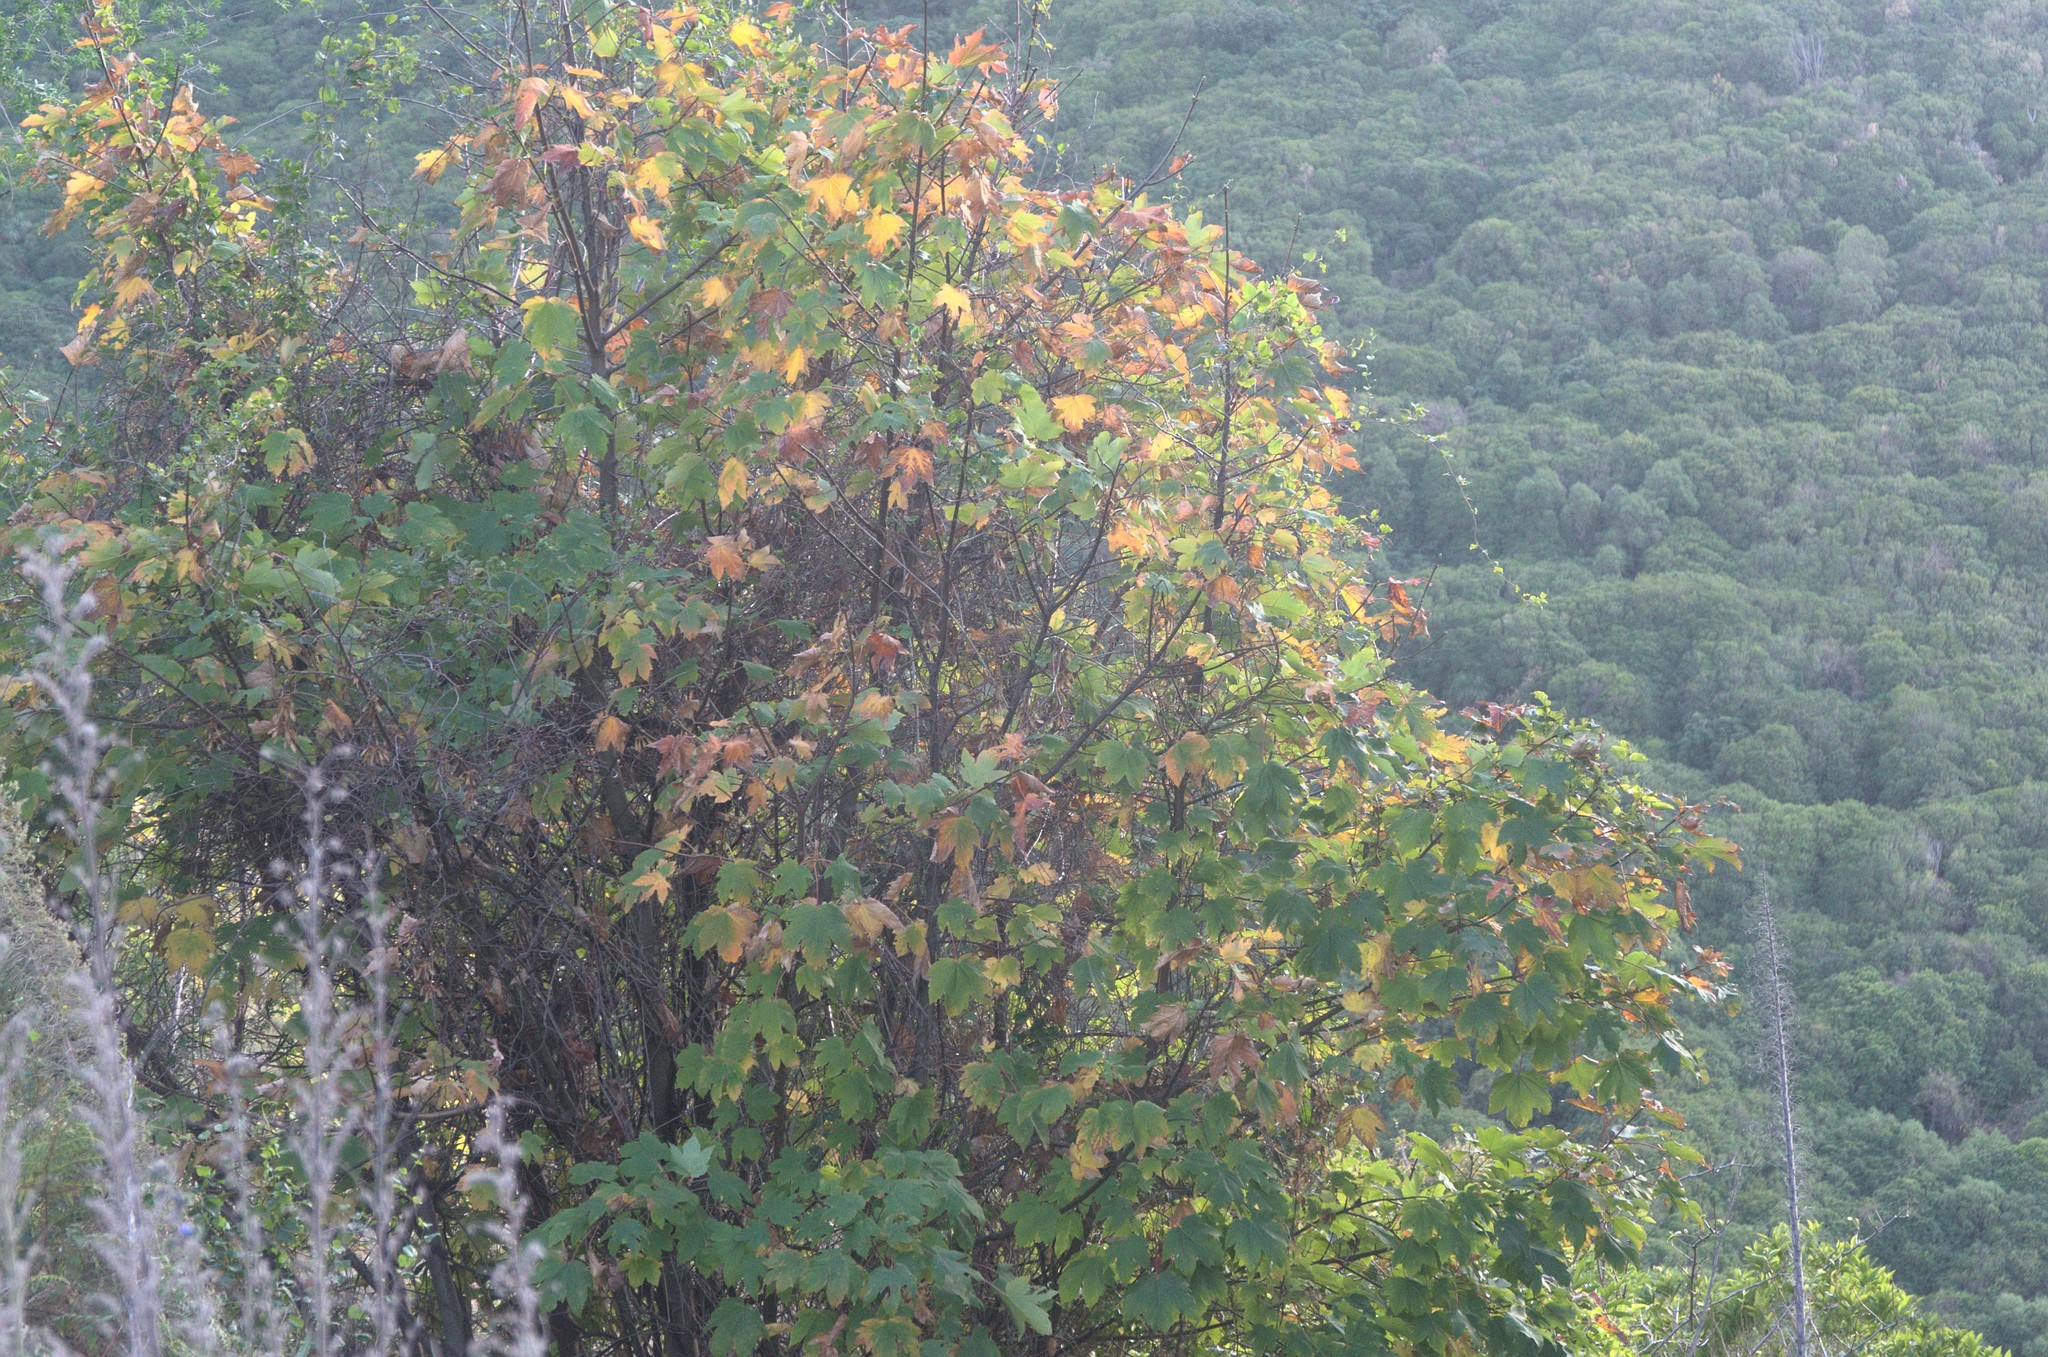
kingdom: Plantae
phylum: Tracheophyta
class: Magnoliopsida
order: Sapindales
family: Sapindaceae
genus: Acer
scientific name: Acer pseudoplatanus
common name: Sycamore
